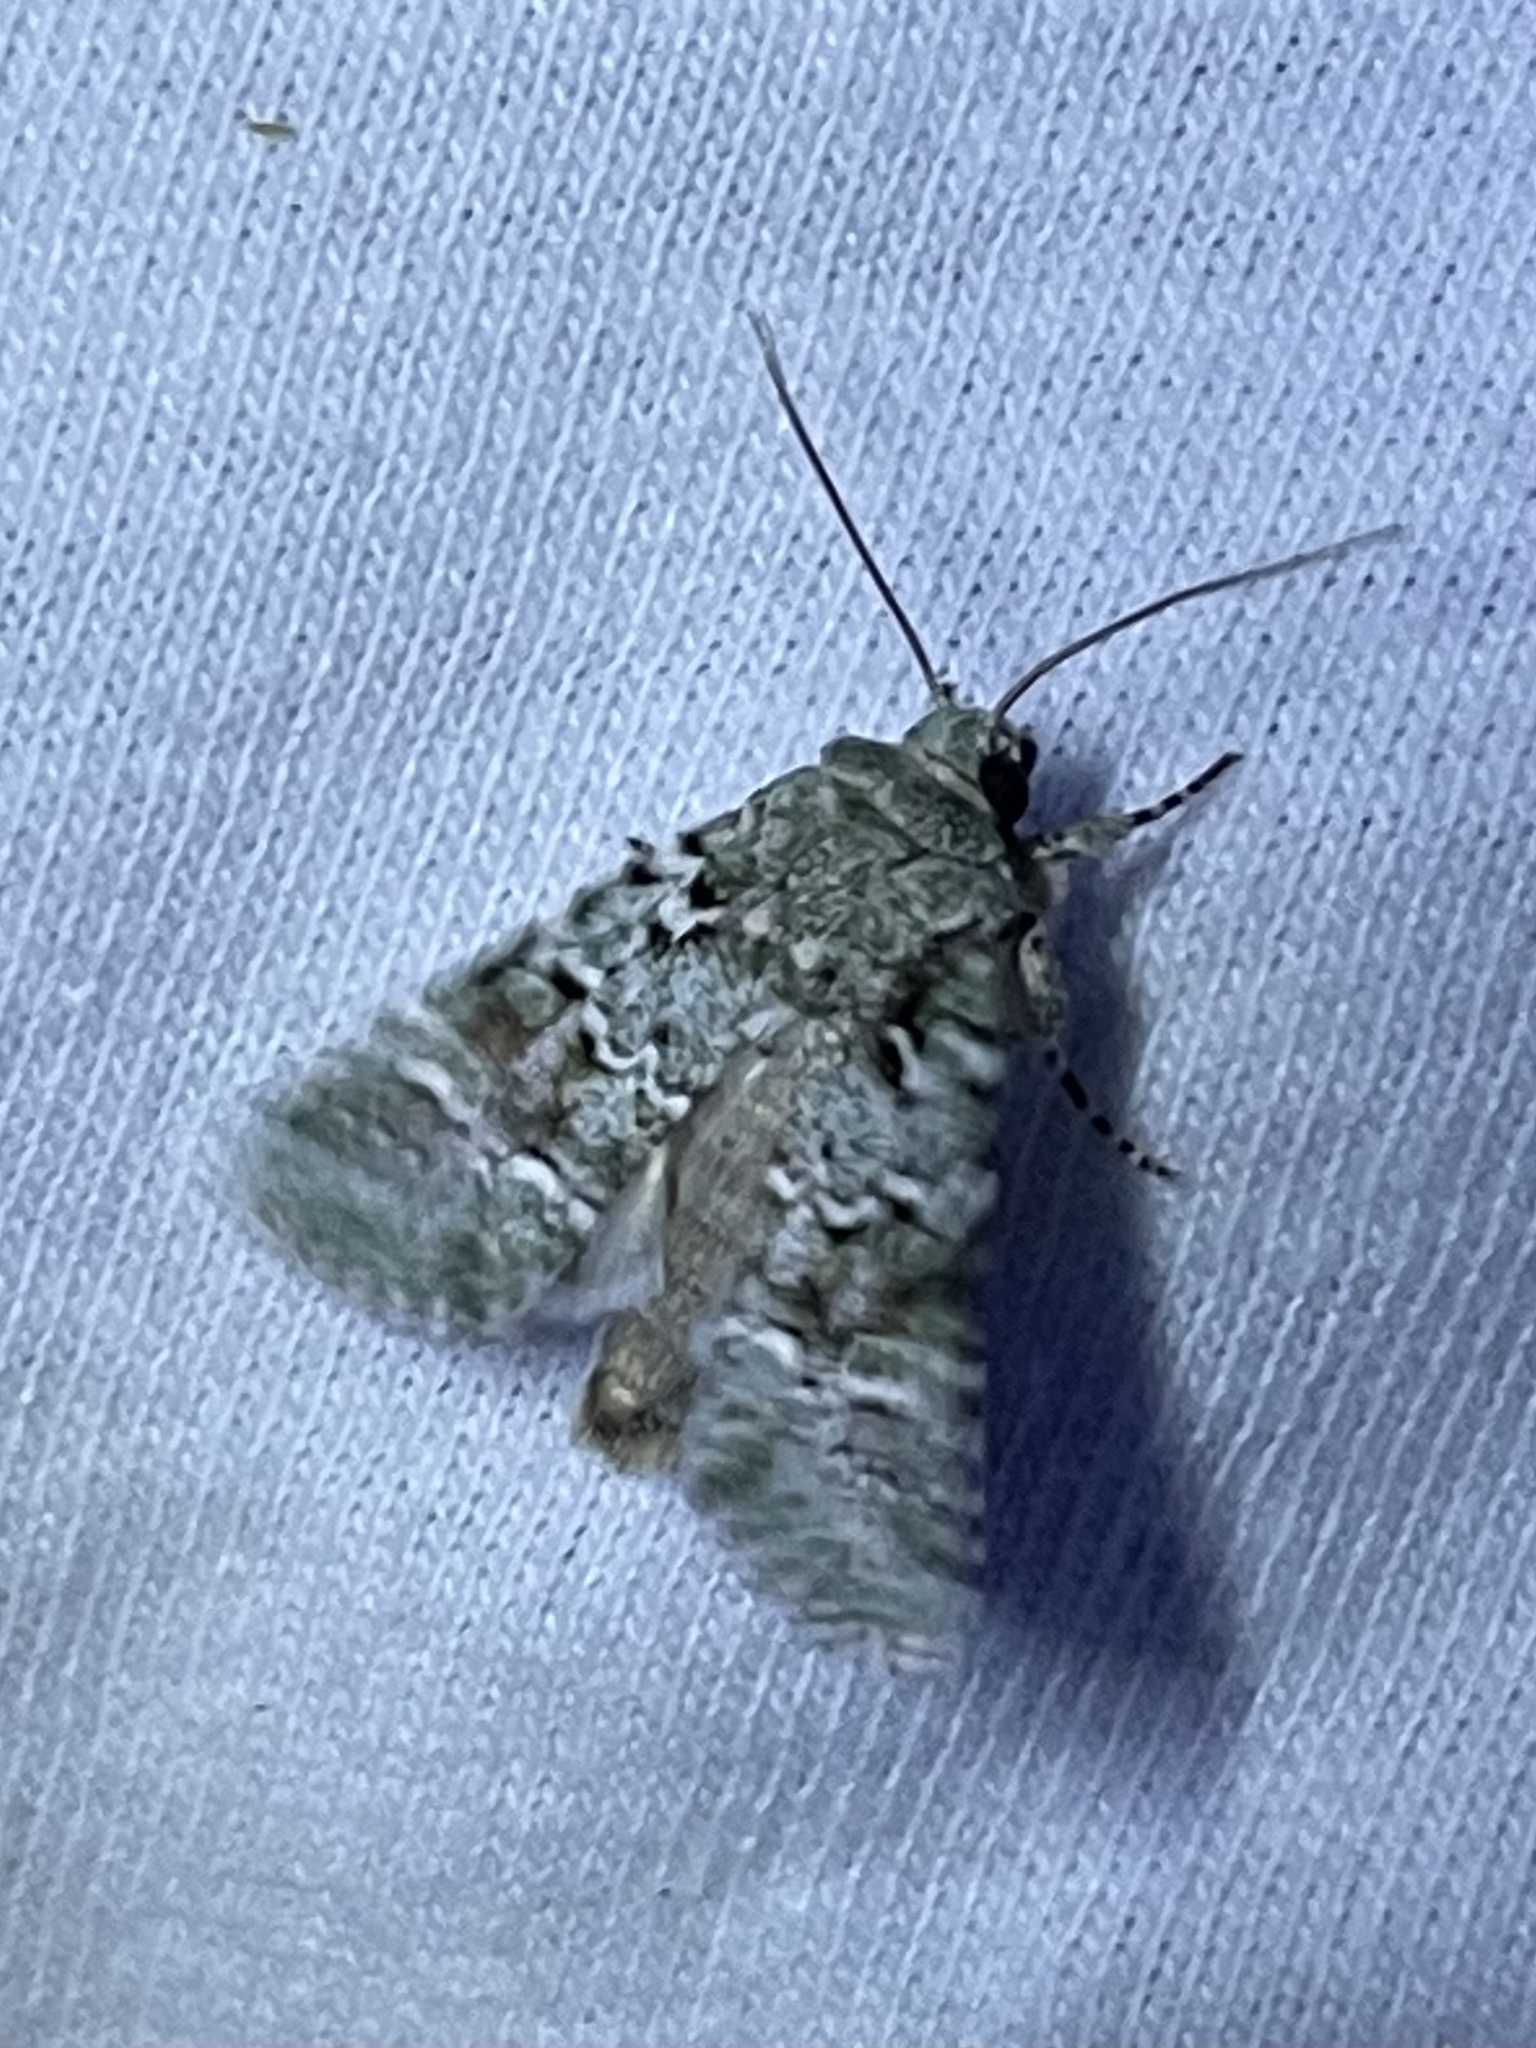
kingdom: Animalia
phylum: Arthropoda
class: Insecta
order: Lepidoptera
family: Noctuidae
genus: Lacinipolia
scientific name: Lacinipolia laudabilis
